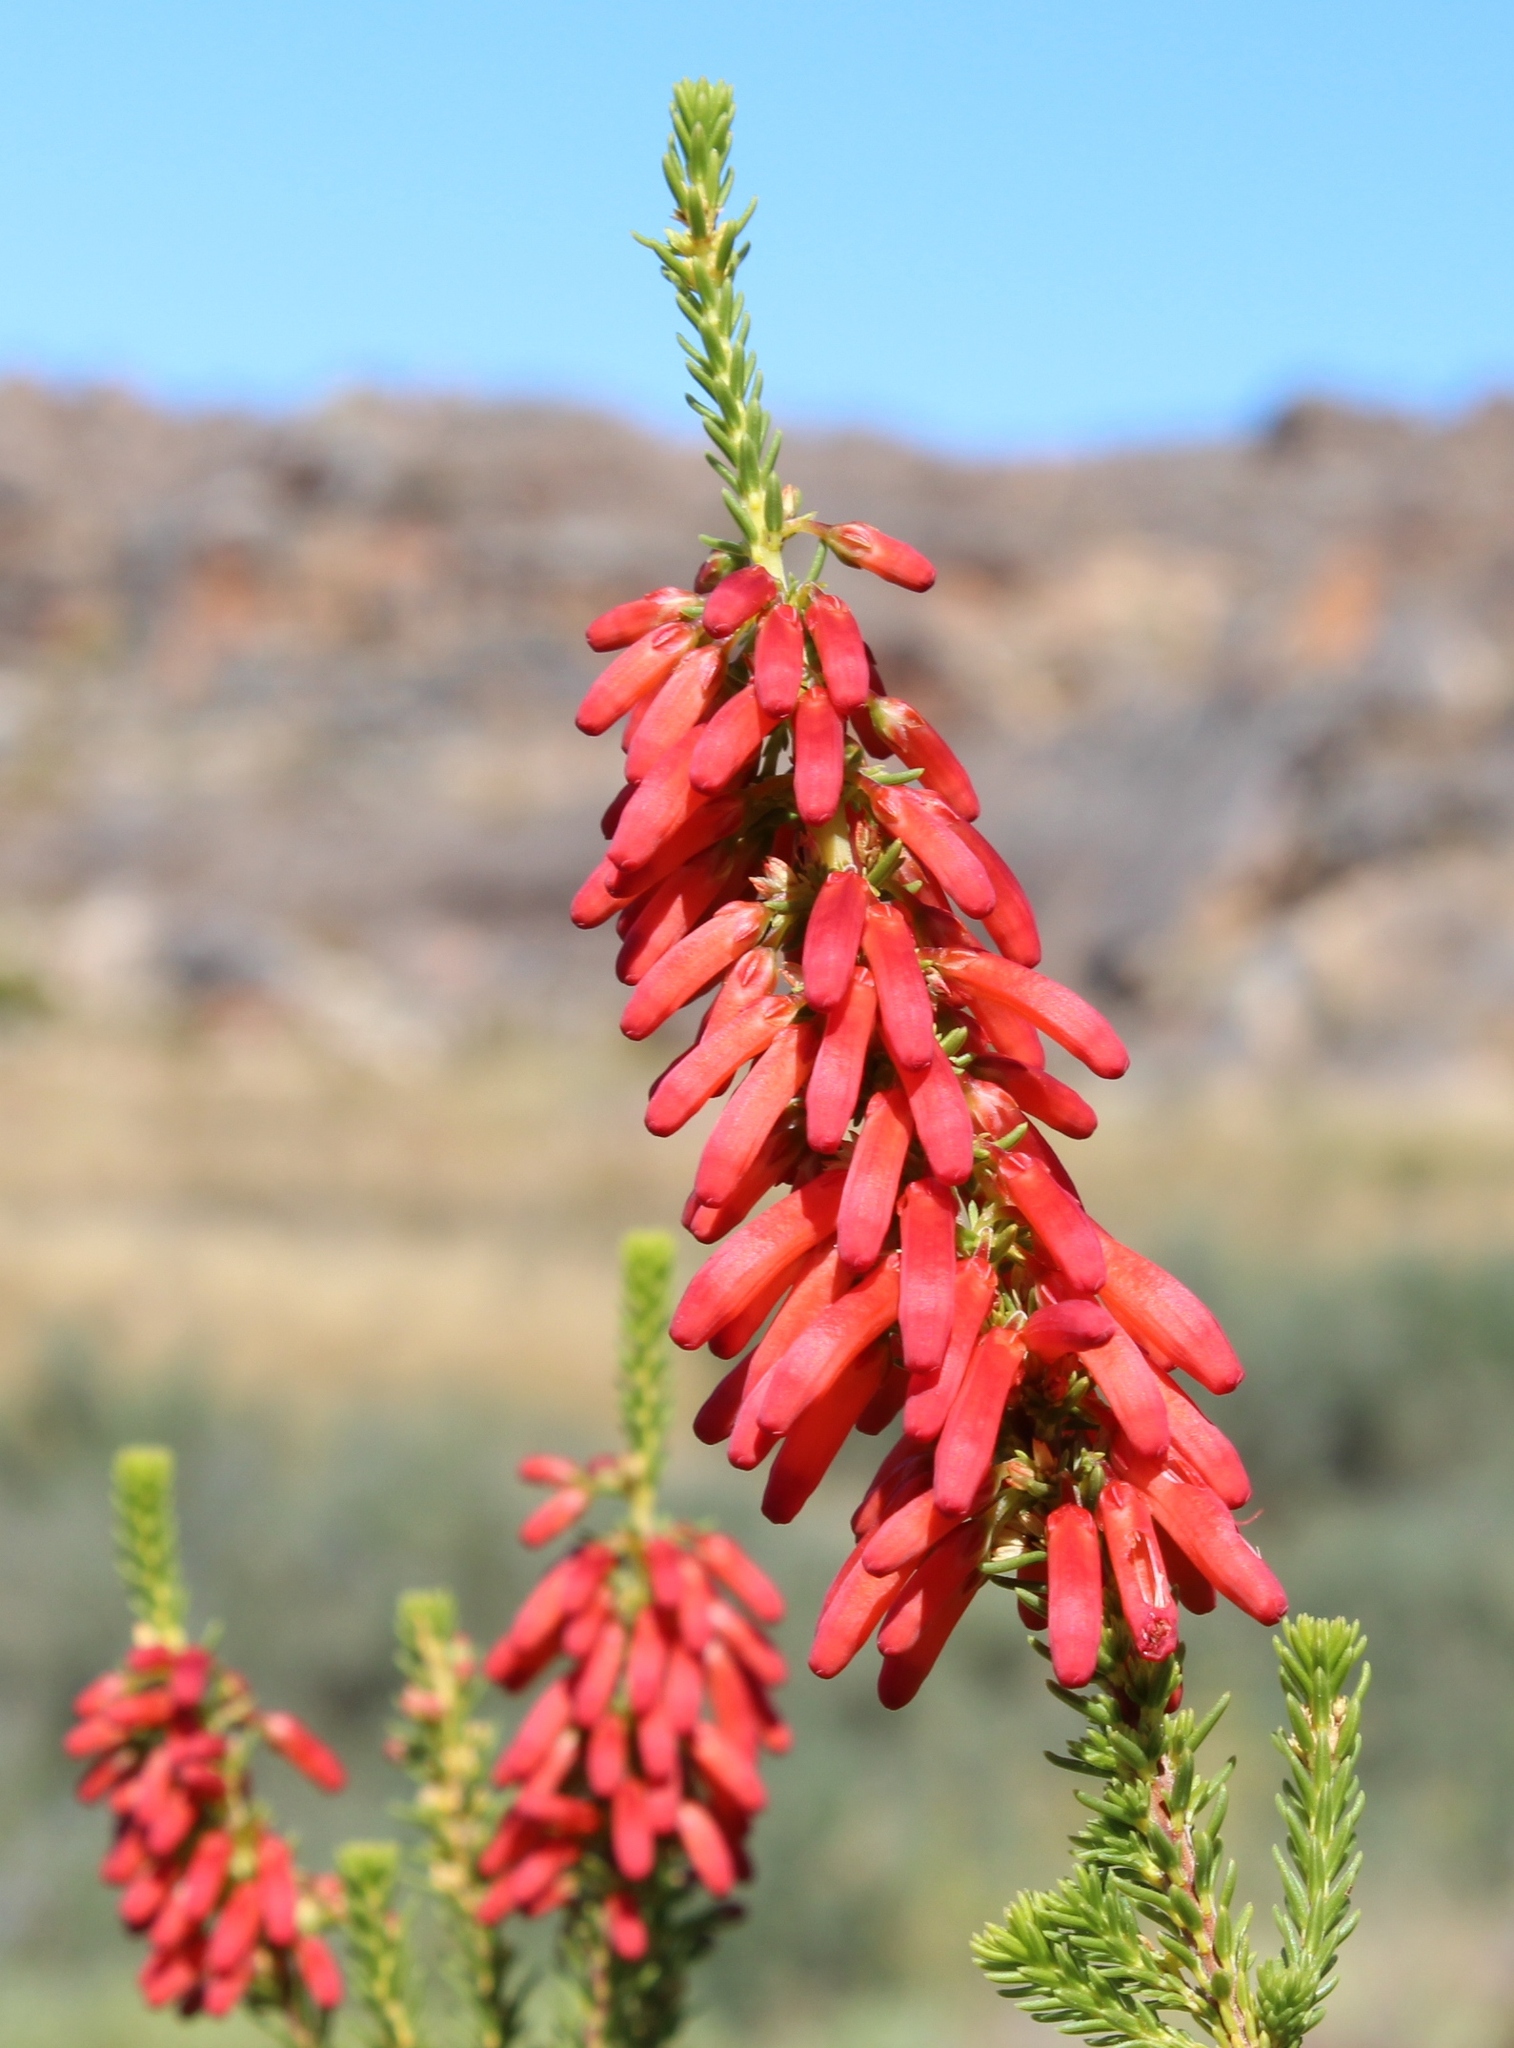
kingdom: Plantae
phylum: Tracheophyta
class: Magnoliopsida
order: Ericales
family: Ericaceae
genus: Erica
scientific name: Erica mammosa
